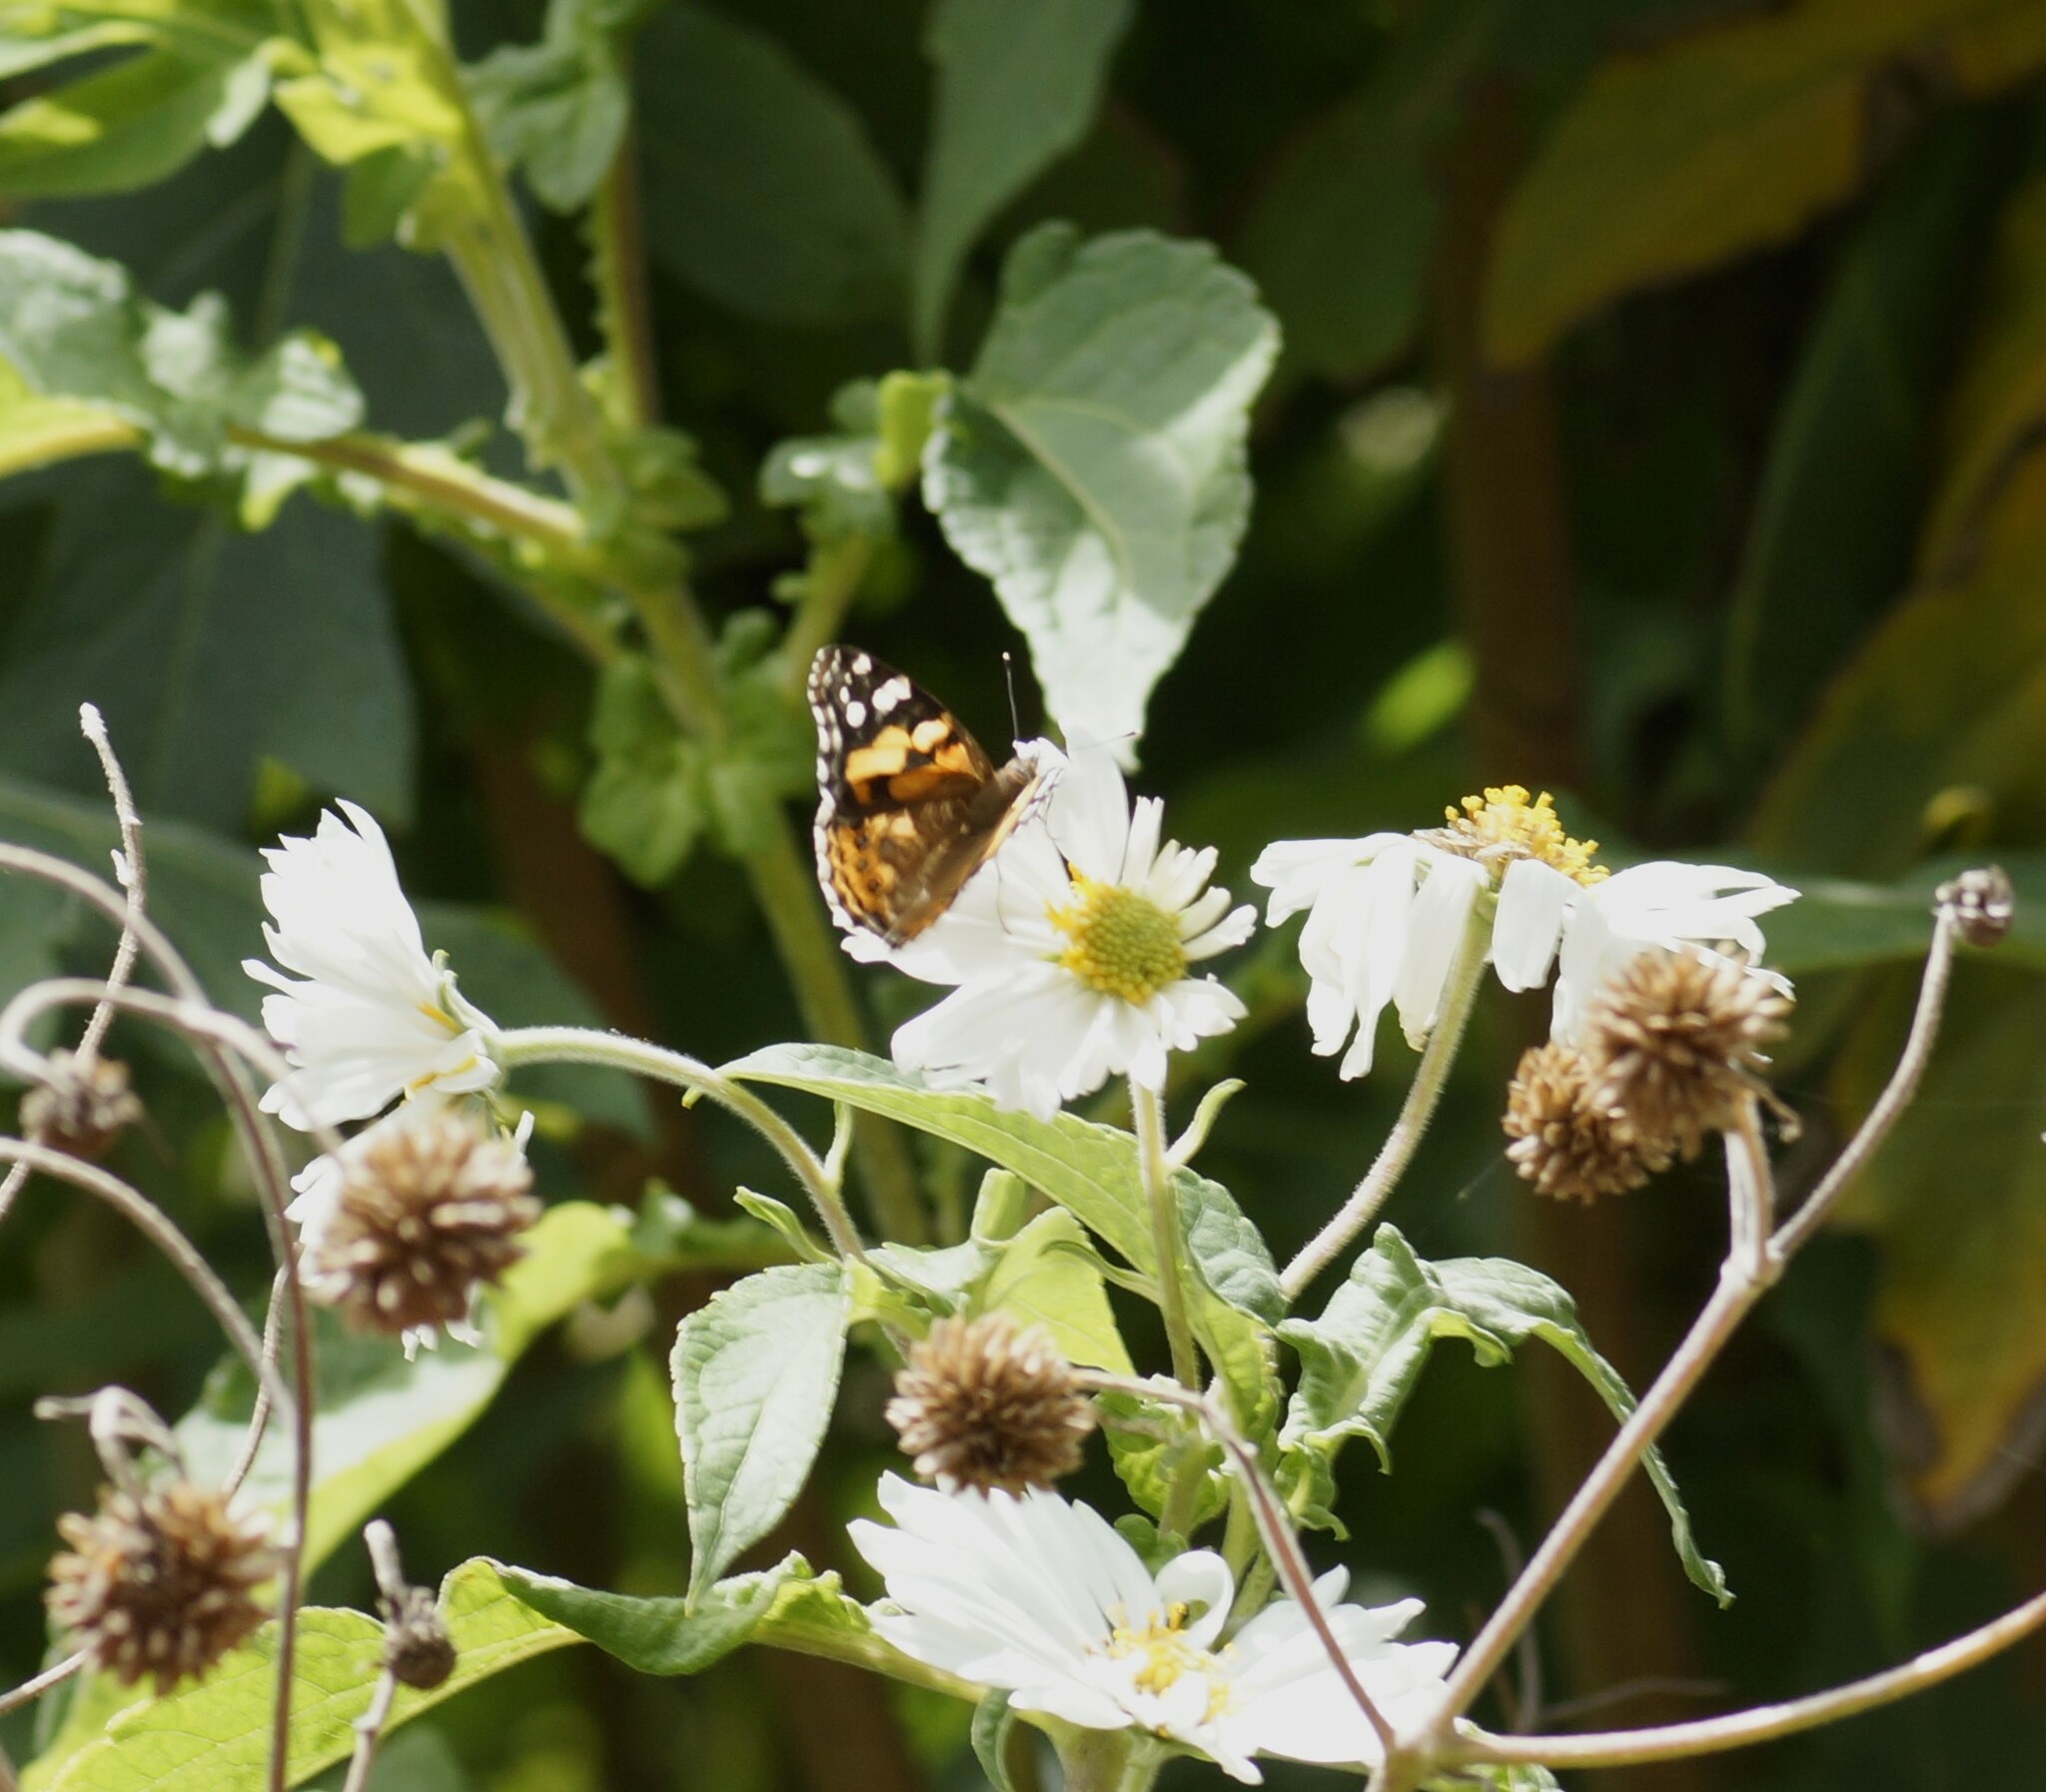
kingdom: Animalia
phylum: Arthropoda
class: Insecta
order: Lepidoptera
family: Nymphalidae
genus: Vanessa
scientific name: Vanessa kershawi
